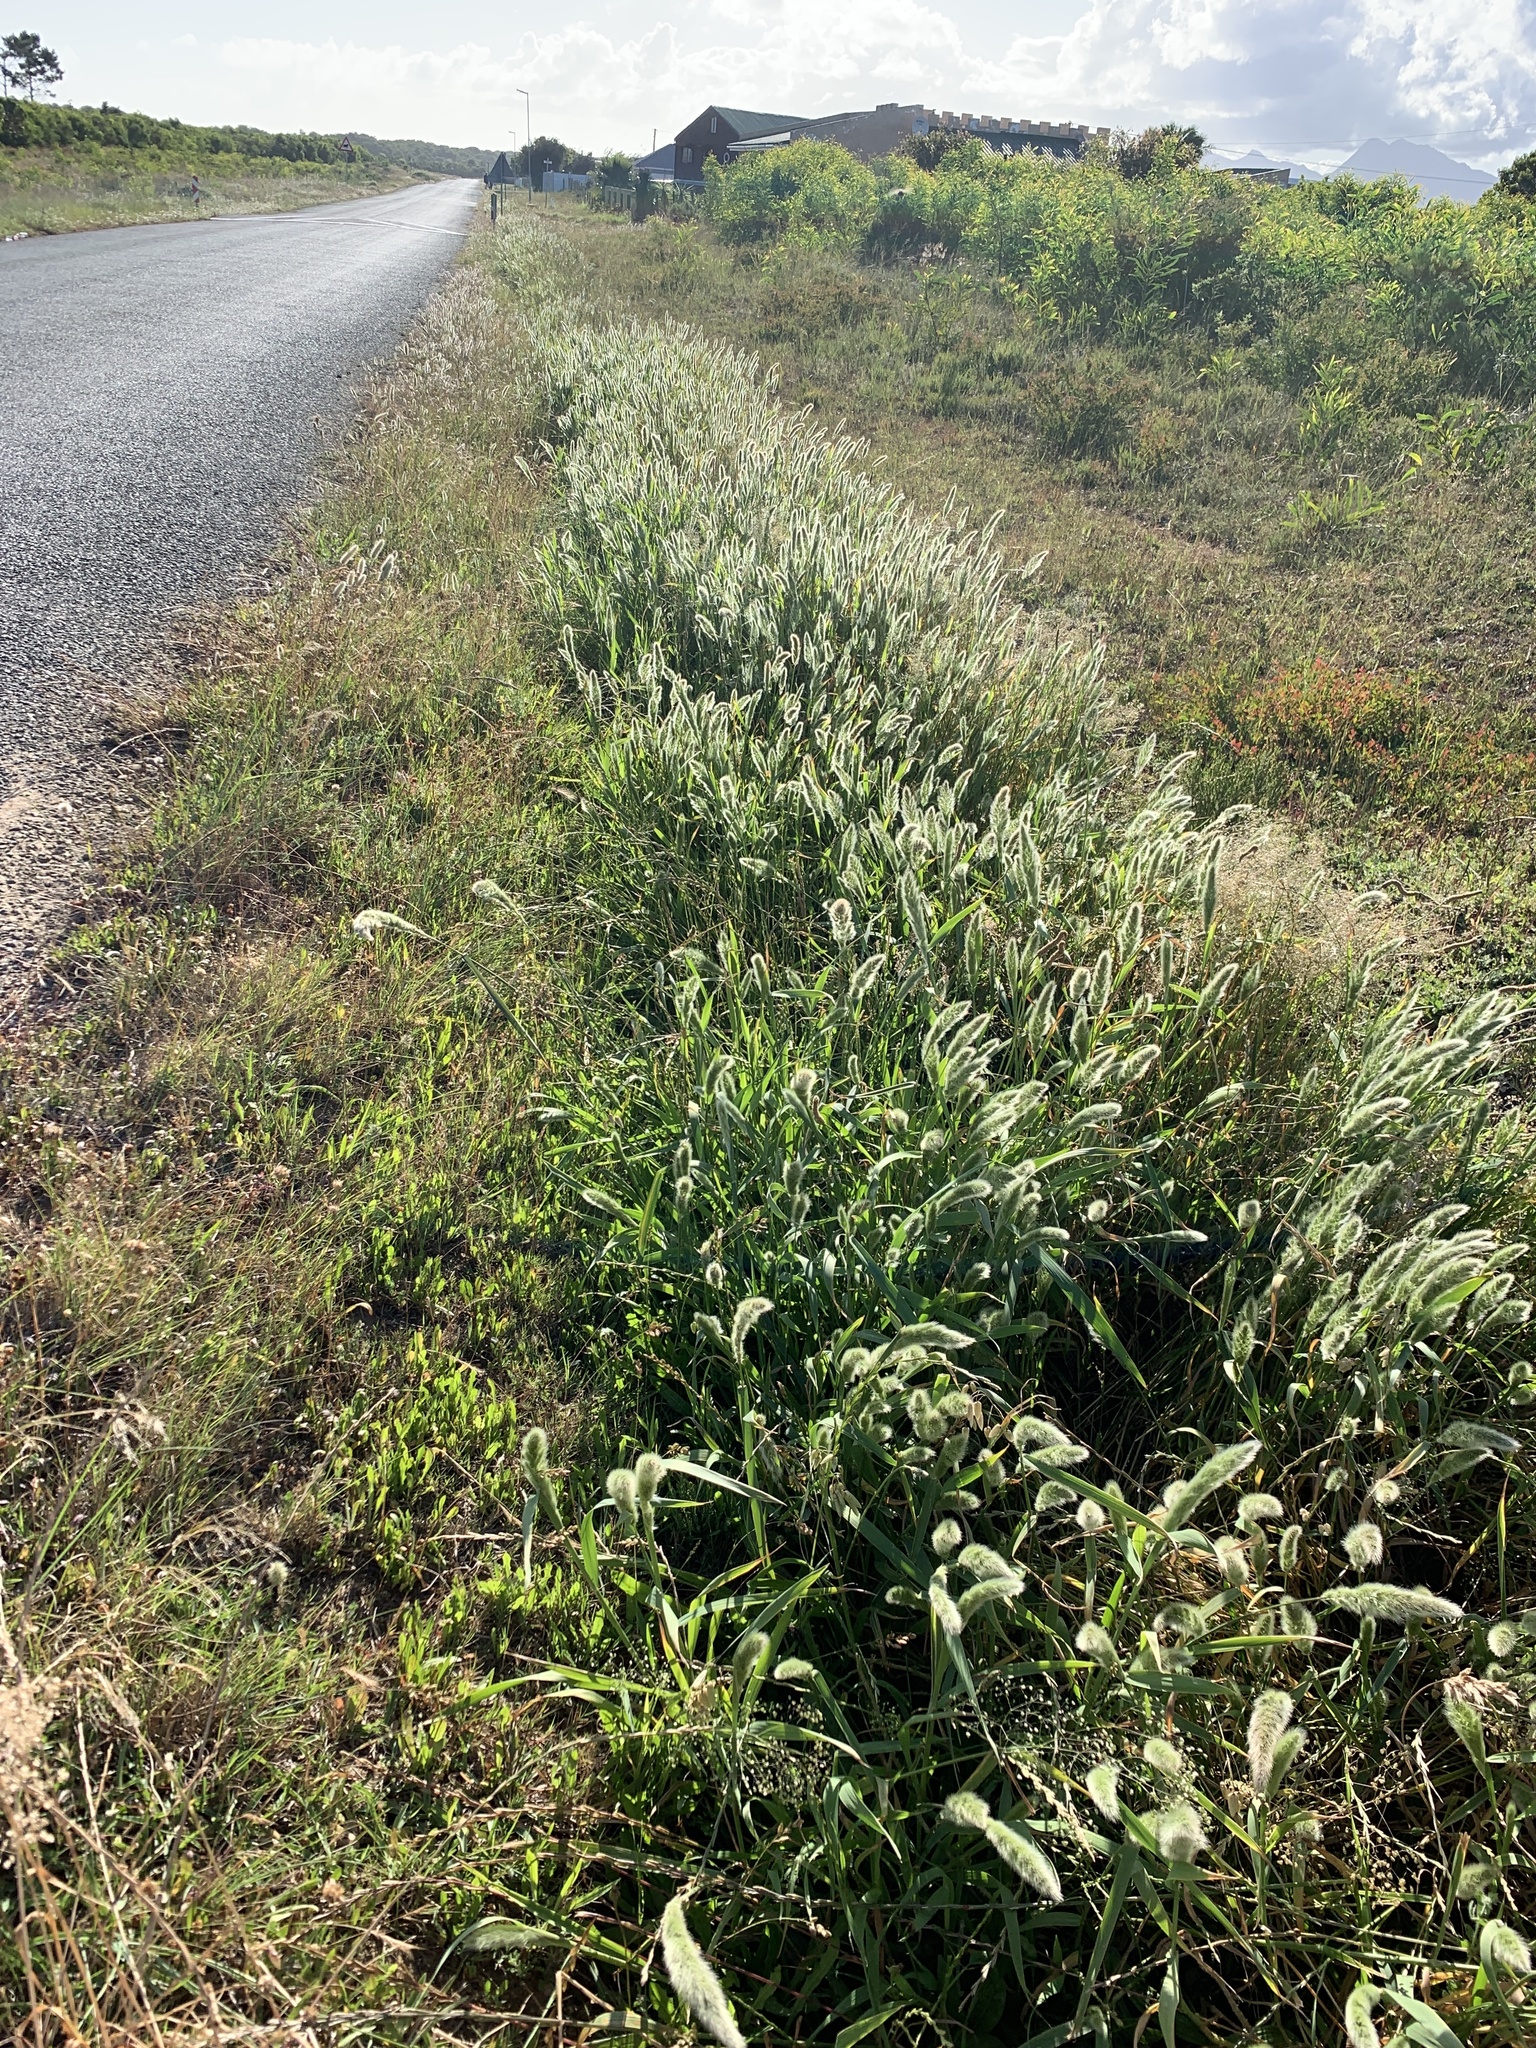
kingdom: Plantae
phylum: Tracheophyta
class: Liliopsida
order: Poales
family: Poaceae
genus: Polypogon
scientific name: Polypogon monspeliensis
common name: Annual rabbitsfoot grass
